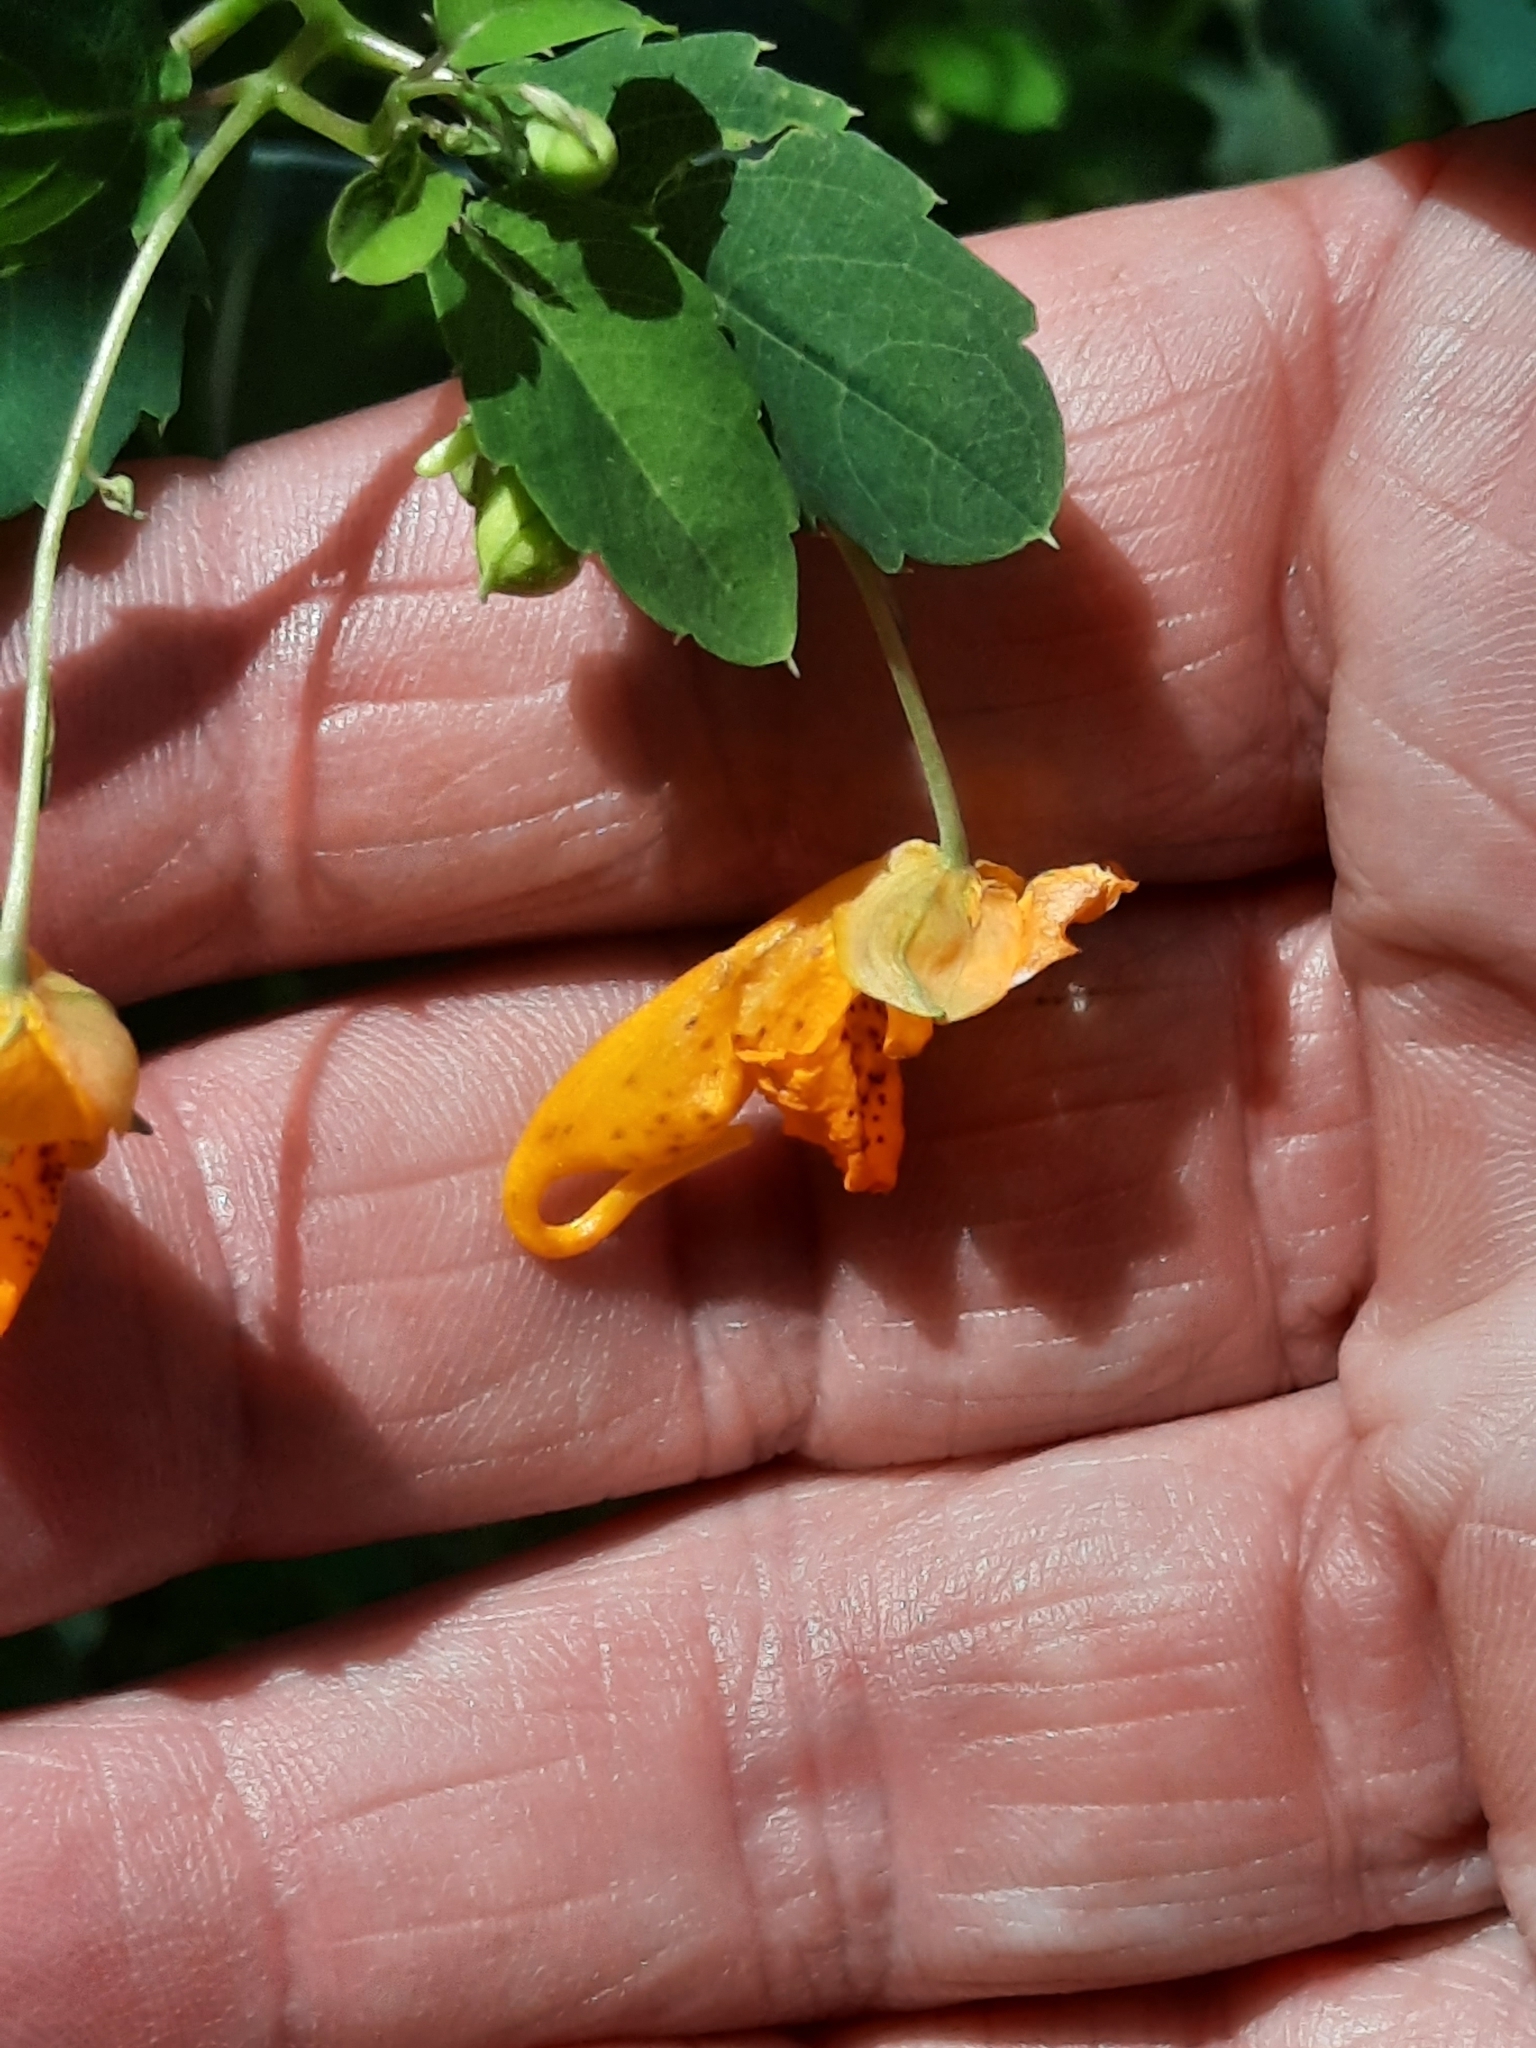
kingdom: Plantae
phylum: Tracheophyta
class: Magnoliopsida
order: Ericales
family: Balsaminaceae
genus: Impatiens
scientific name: Impatiens capensis
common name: Orange balsam
